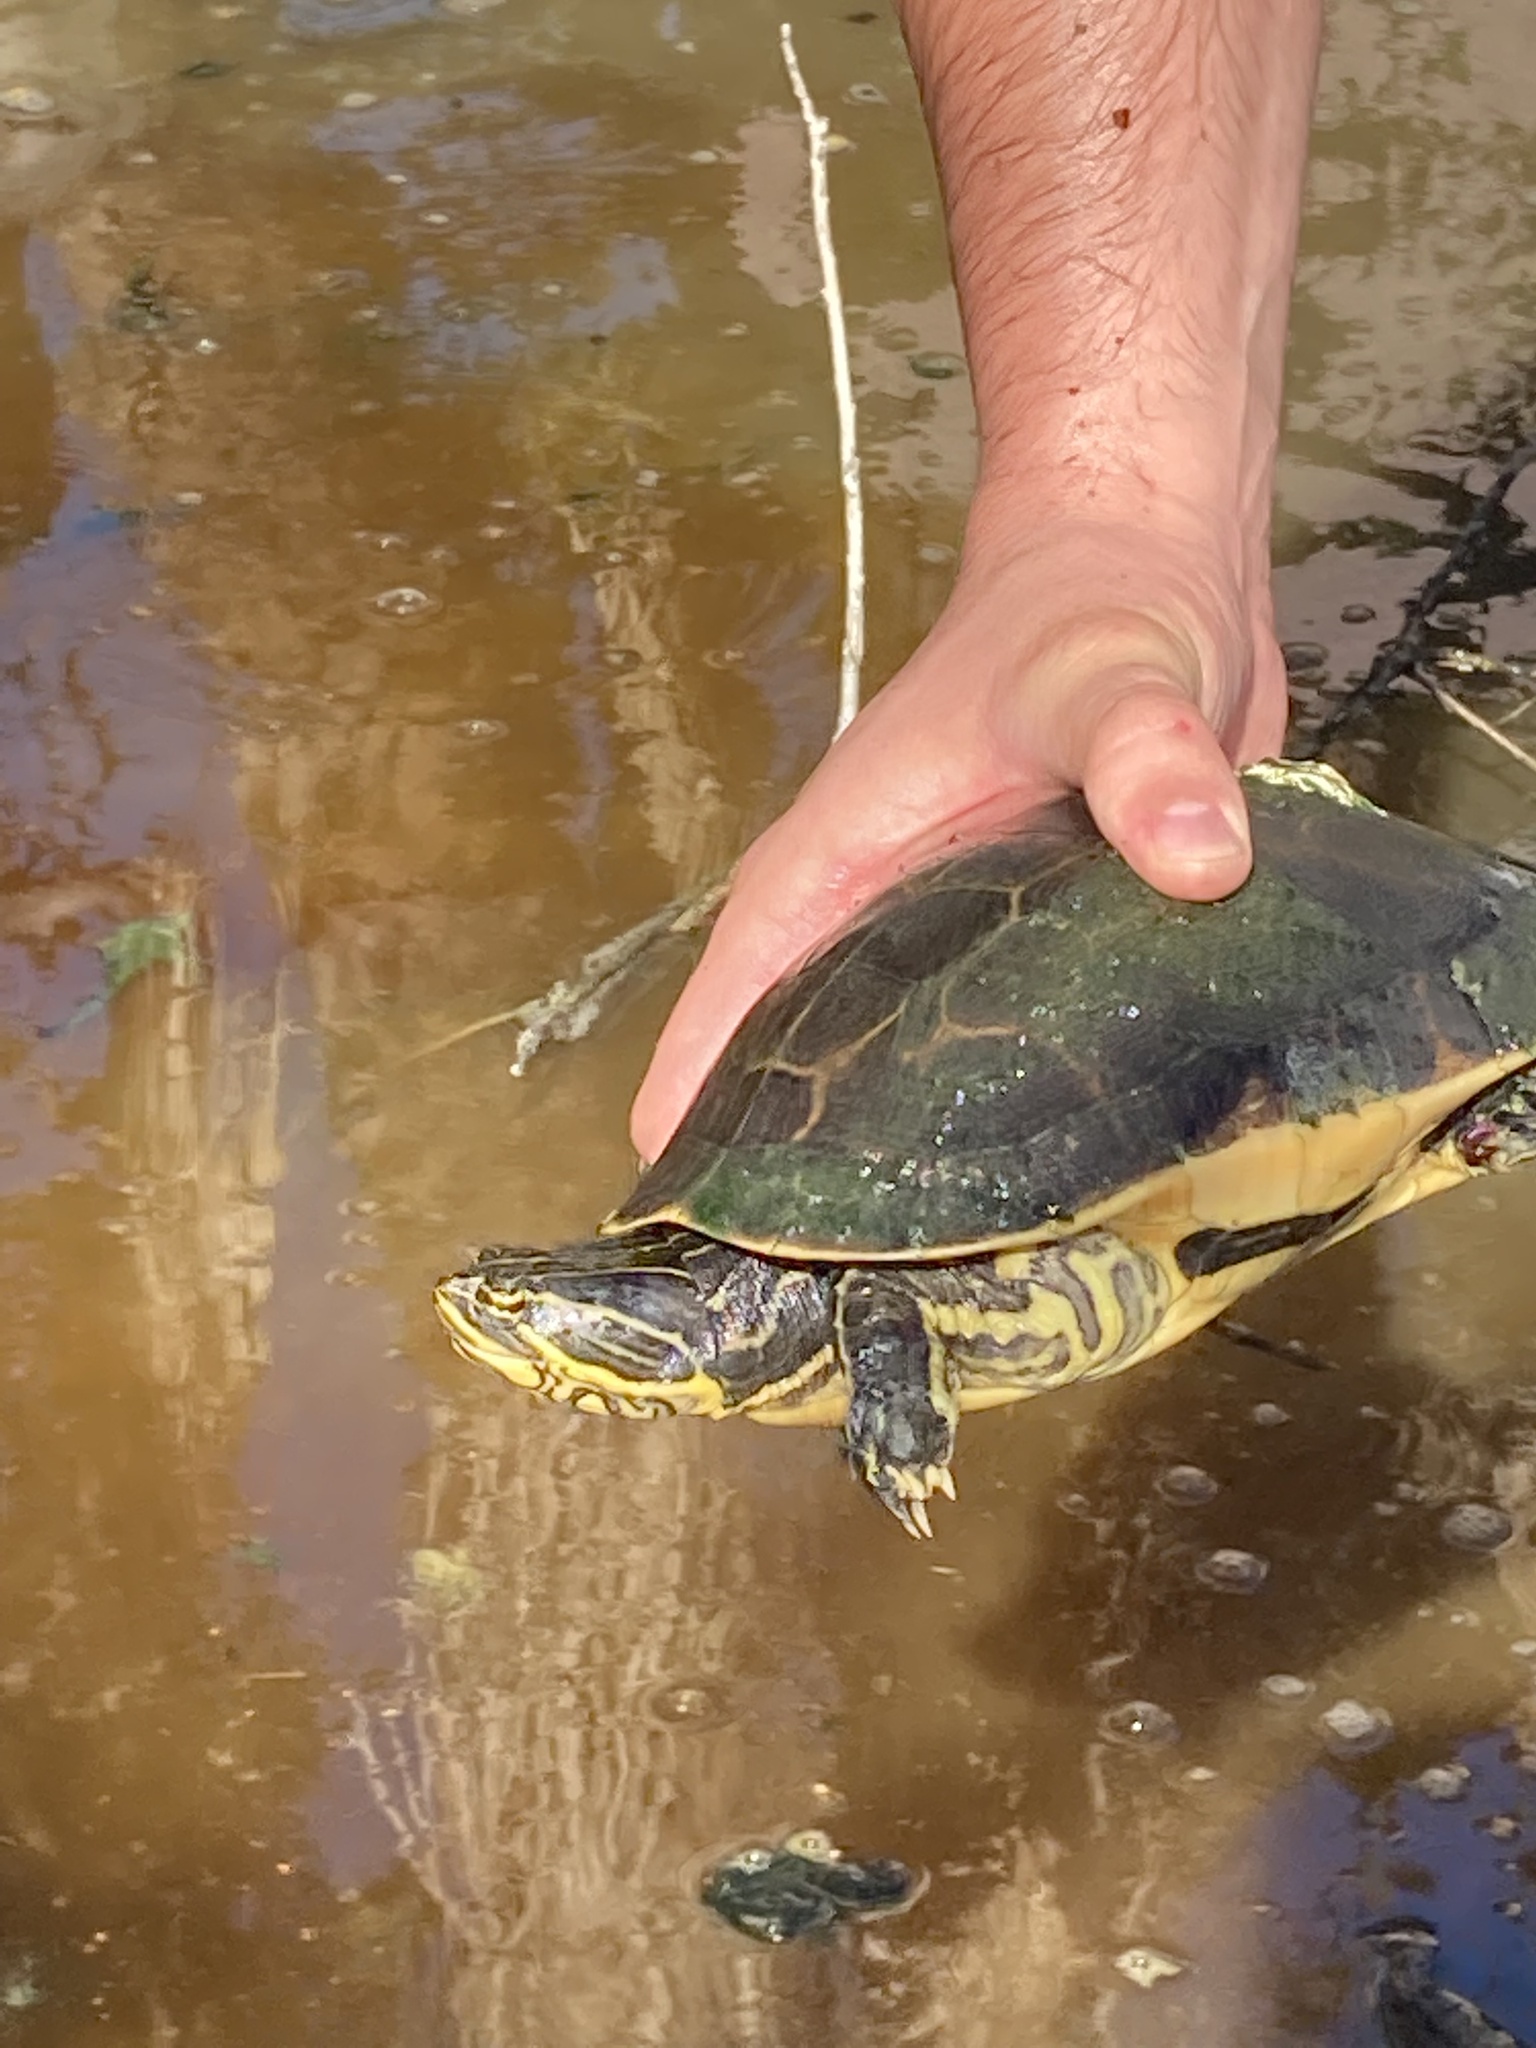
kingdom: Animalia
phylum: Chordata
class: Testudines
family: Emydidae
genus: Deirochelys
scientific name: Deirochelys reticularia
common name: Chicken turtle
